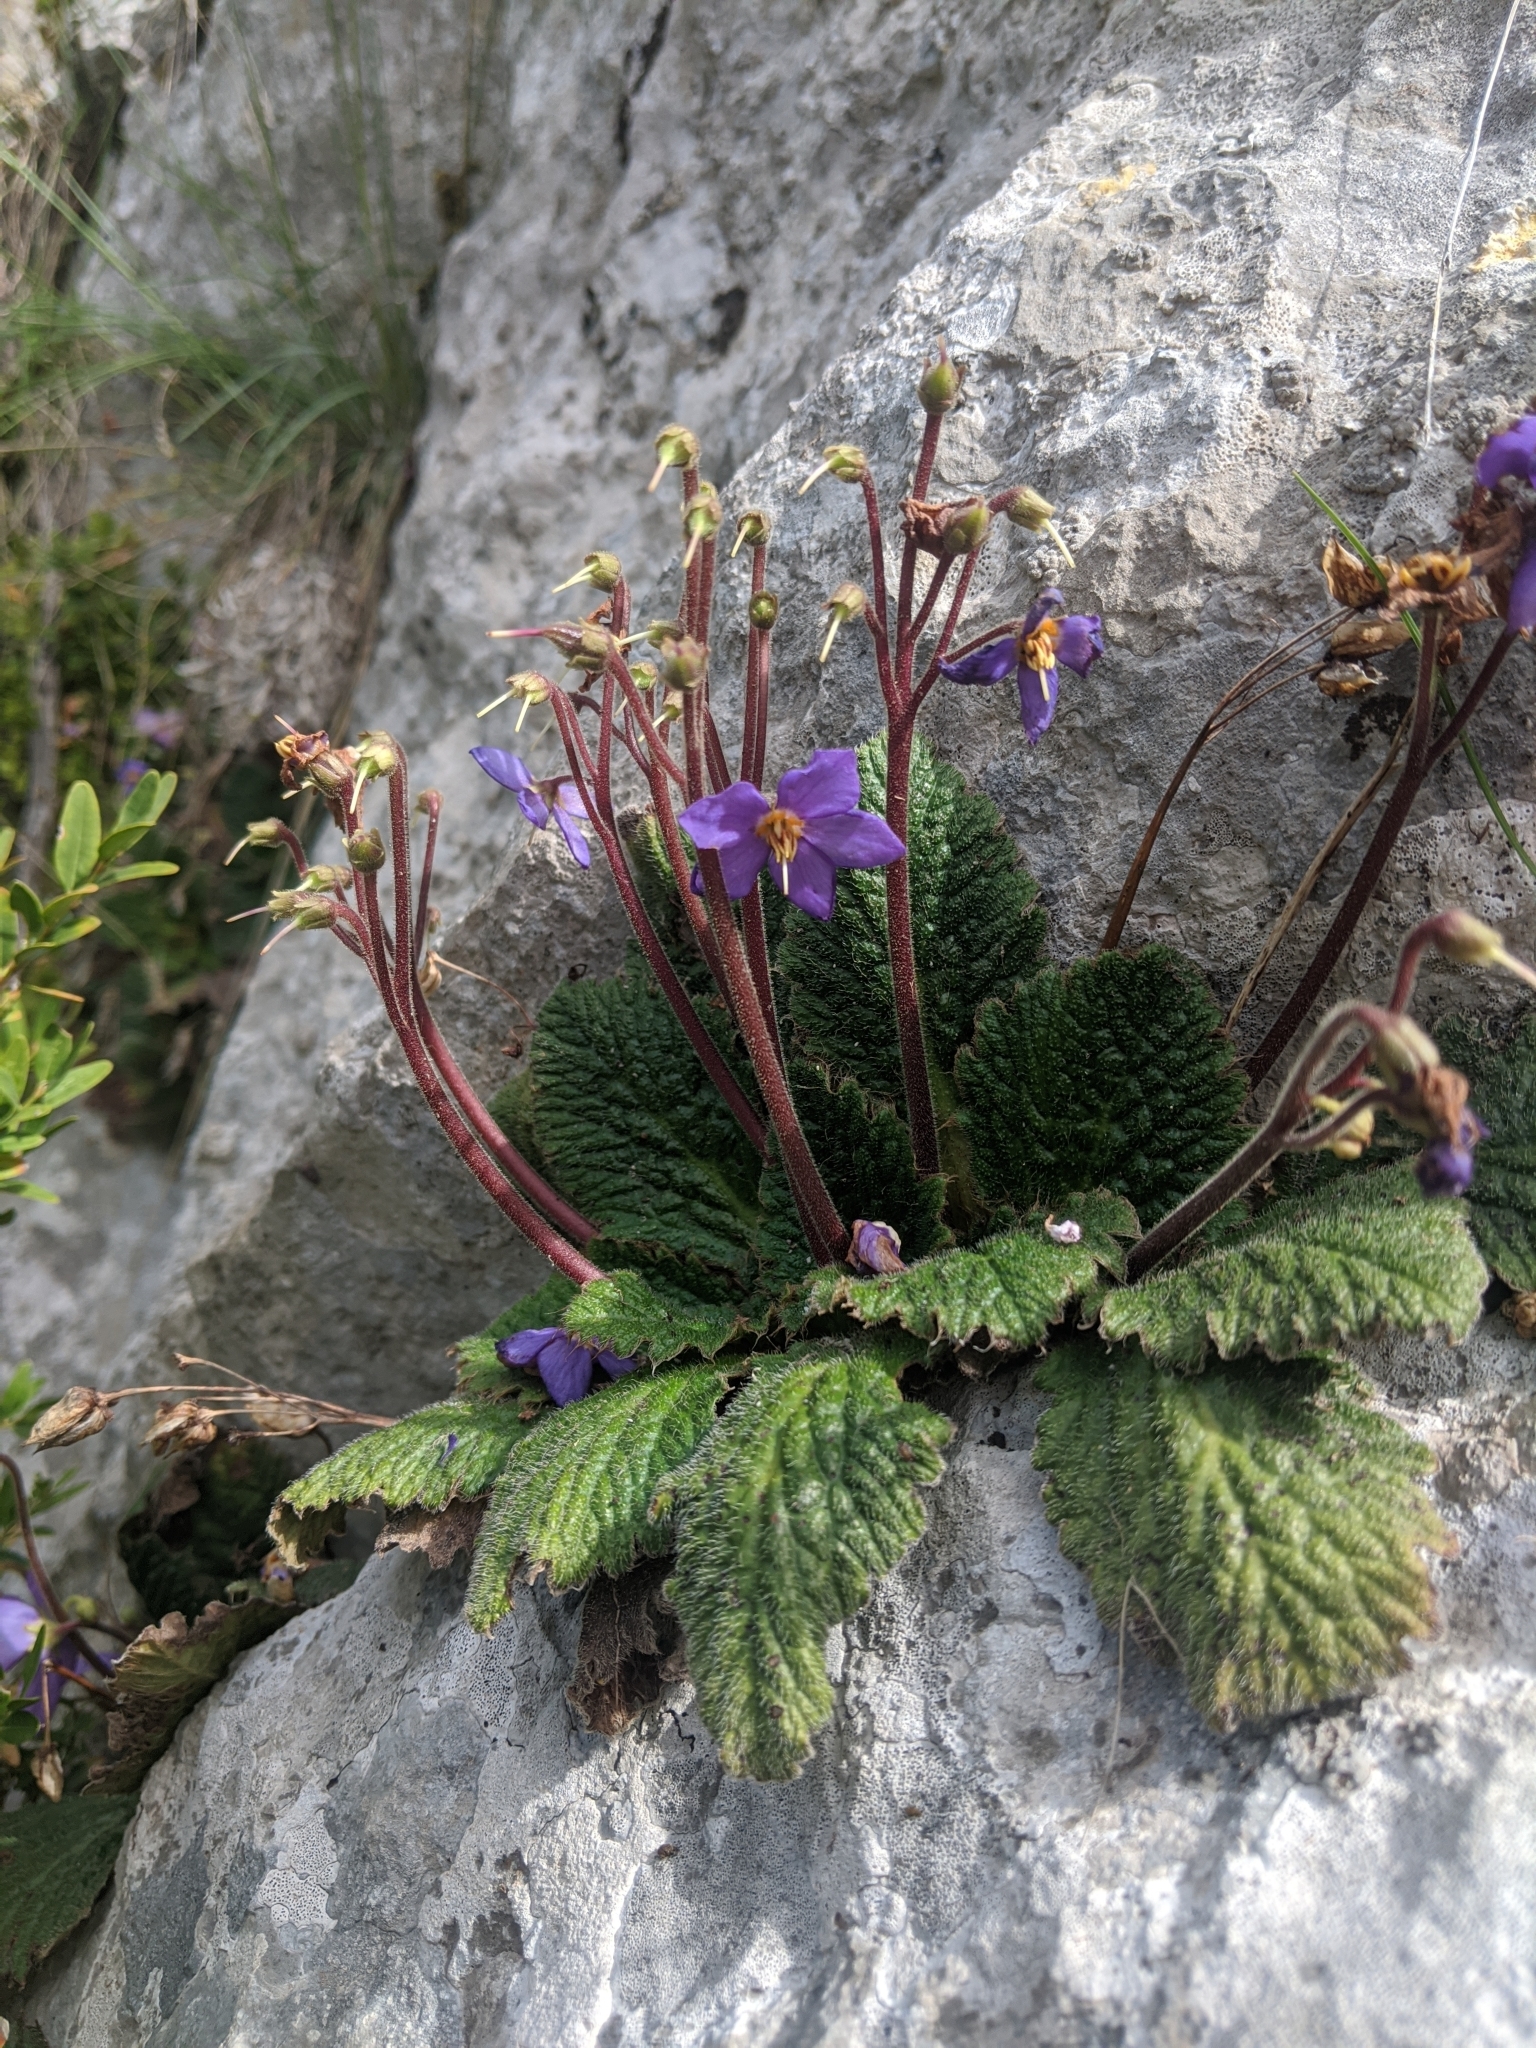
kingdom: Plantae
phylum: Tracheophyta
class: Magnoliopsida
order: Lamiales
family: Gesneriaceae
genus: Ramonda
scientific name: Ramonda myconi
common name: Pyrenean-violet
